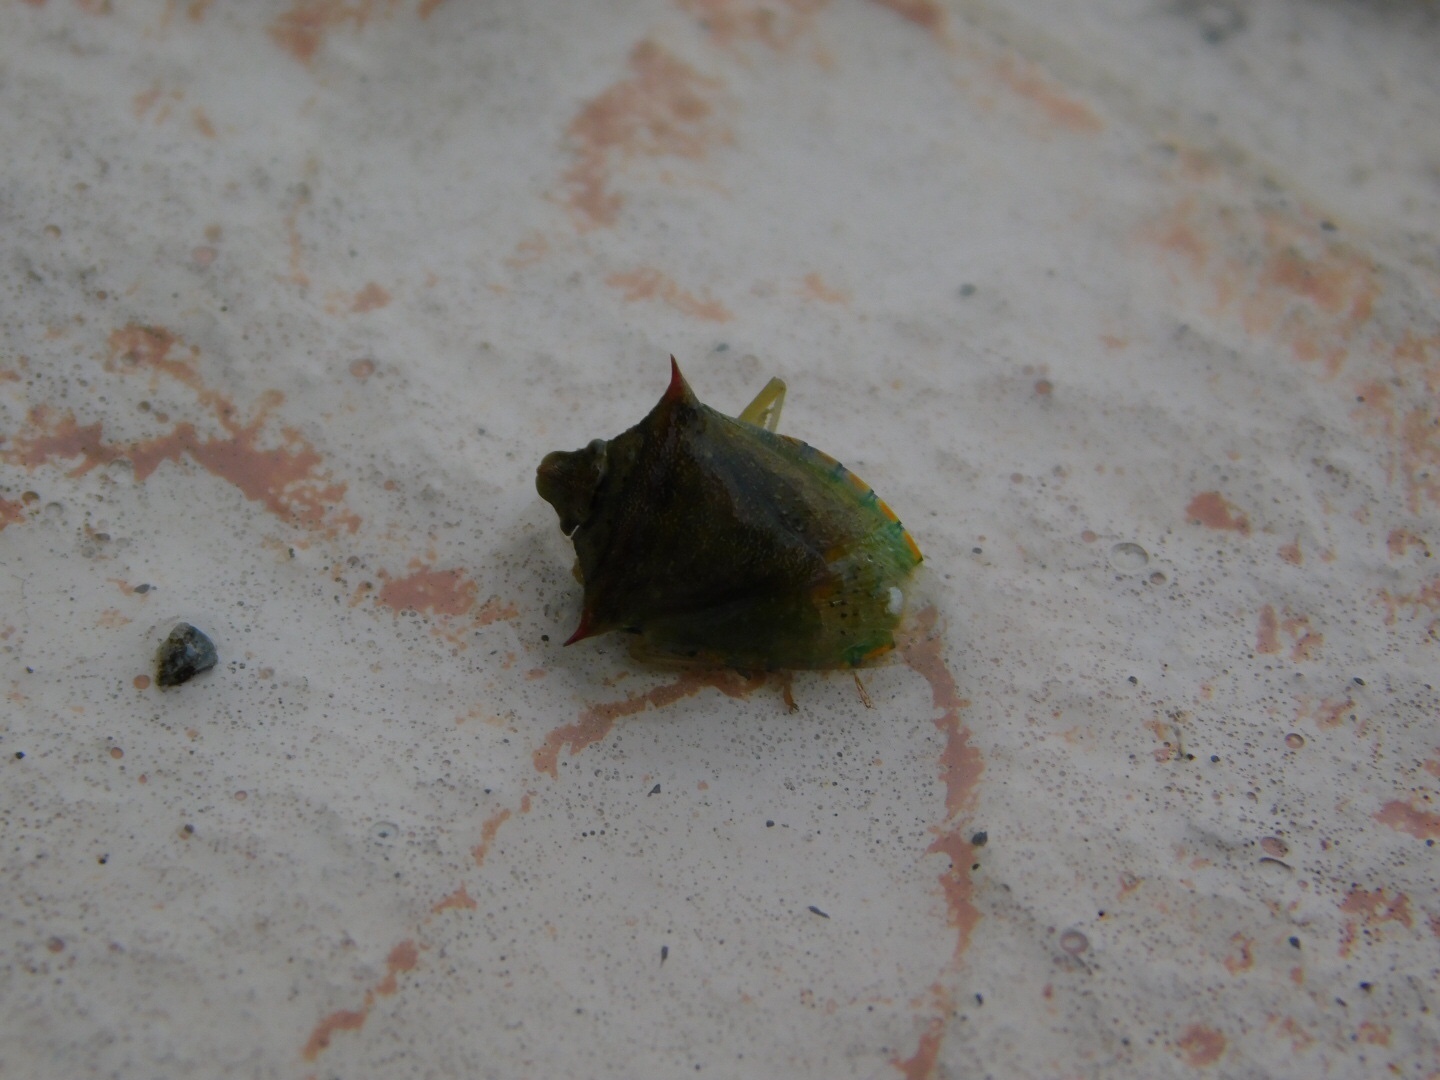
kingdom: Animalia
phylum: Arthropoda
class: Insecta
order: Hemiptera
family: Pentatomidae
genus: Thyanta
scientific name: Thyanta perditor
